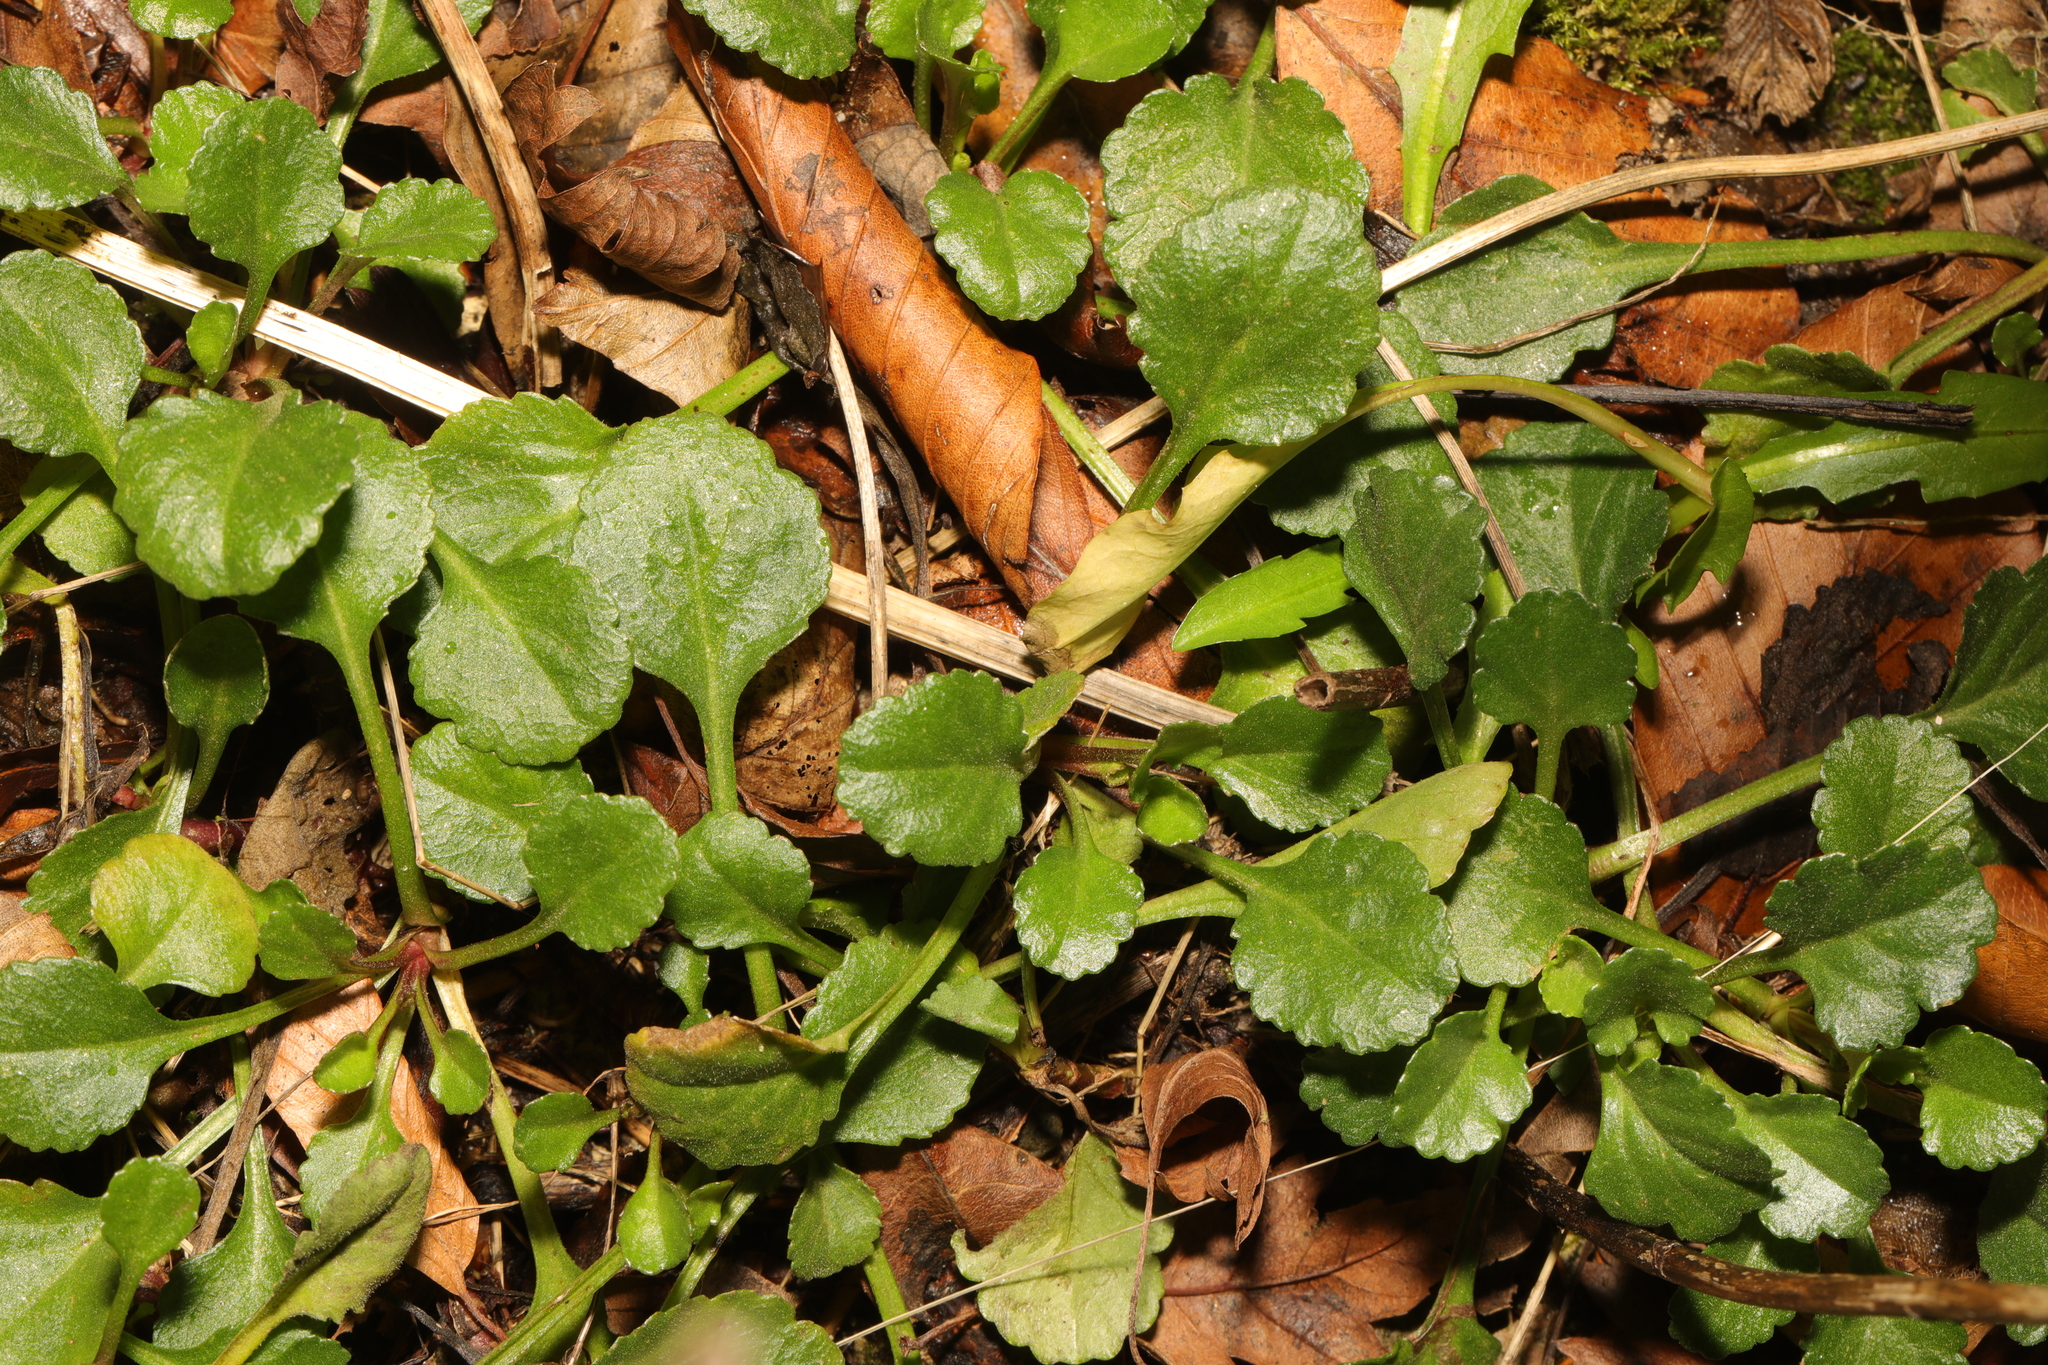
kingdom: Plantae
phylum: Tracheophyta
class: Magnoliopsida
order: Asterales
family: Asteraceae
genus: Leucanthemum
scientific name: Leucanthemum vulgare
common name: Oxeye daisy
